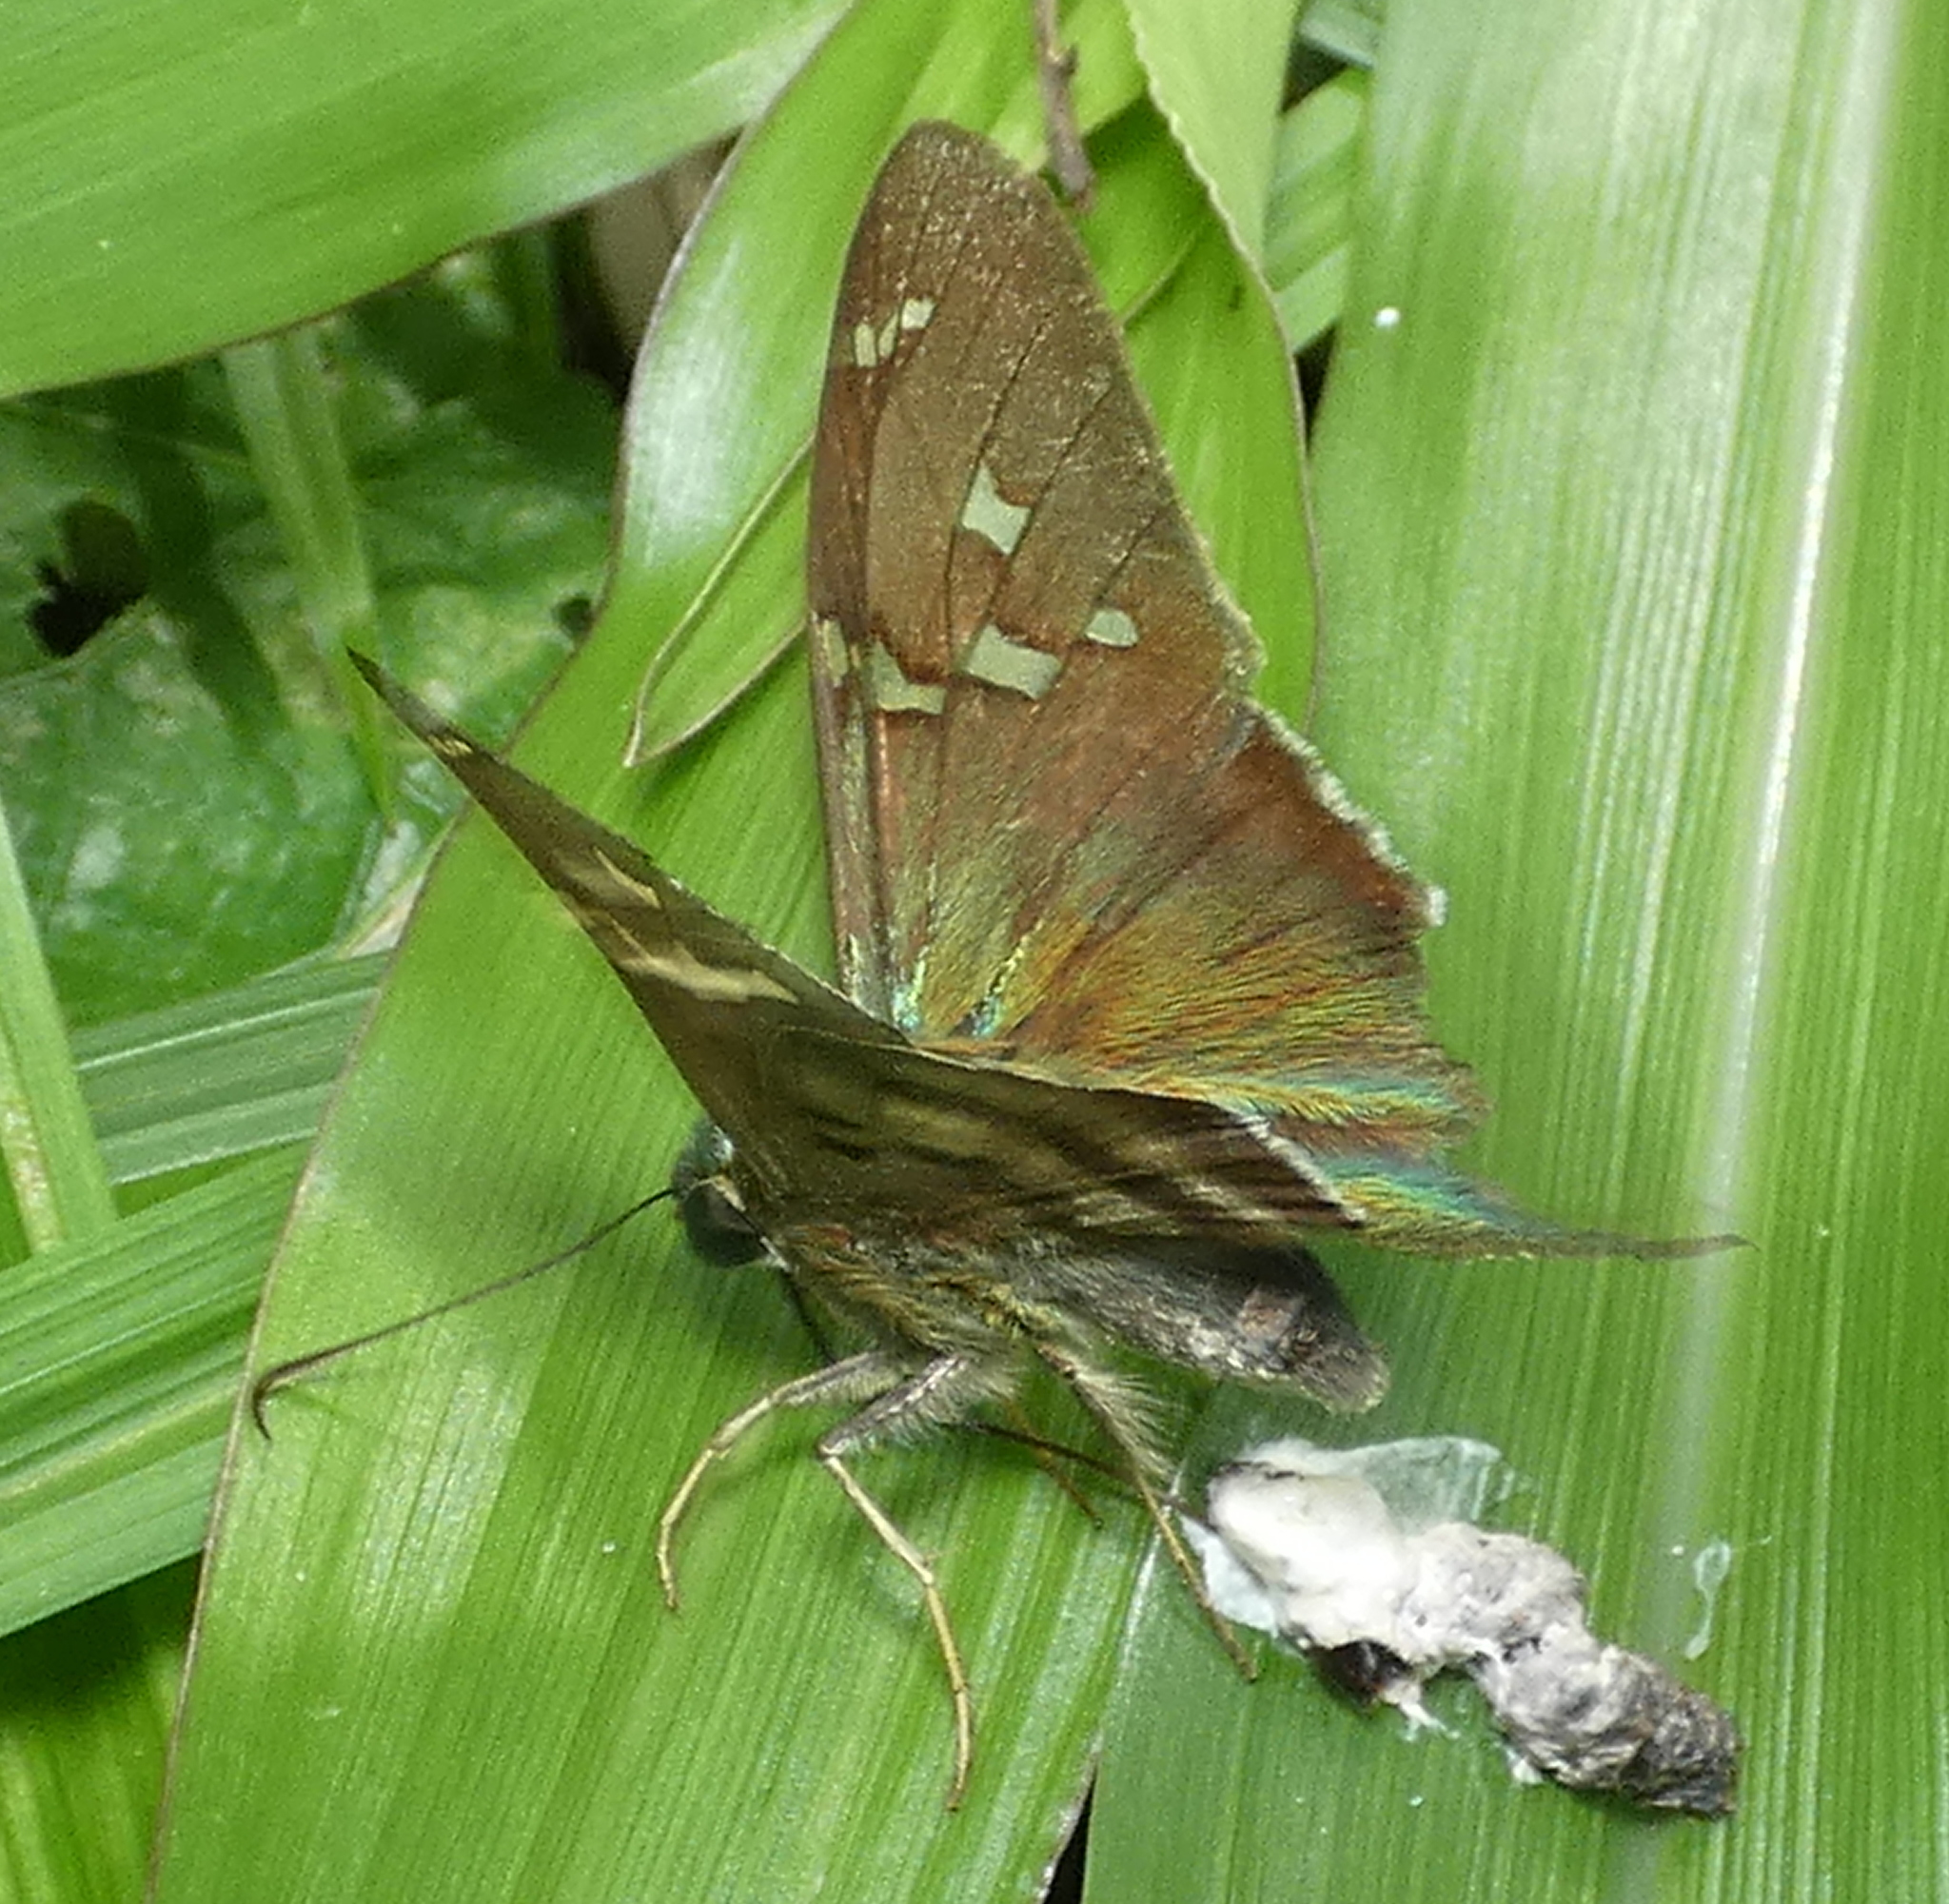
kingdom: Animalia
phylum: Arthropoda
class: Insecta
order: Lepidoptera
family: Hesperiidae
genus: Urbanus
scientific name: Urbanus proteus
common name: Long-tailed skipper
